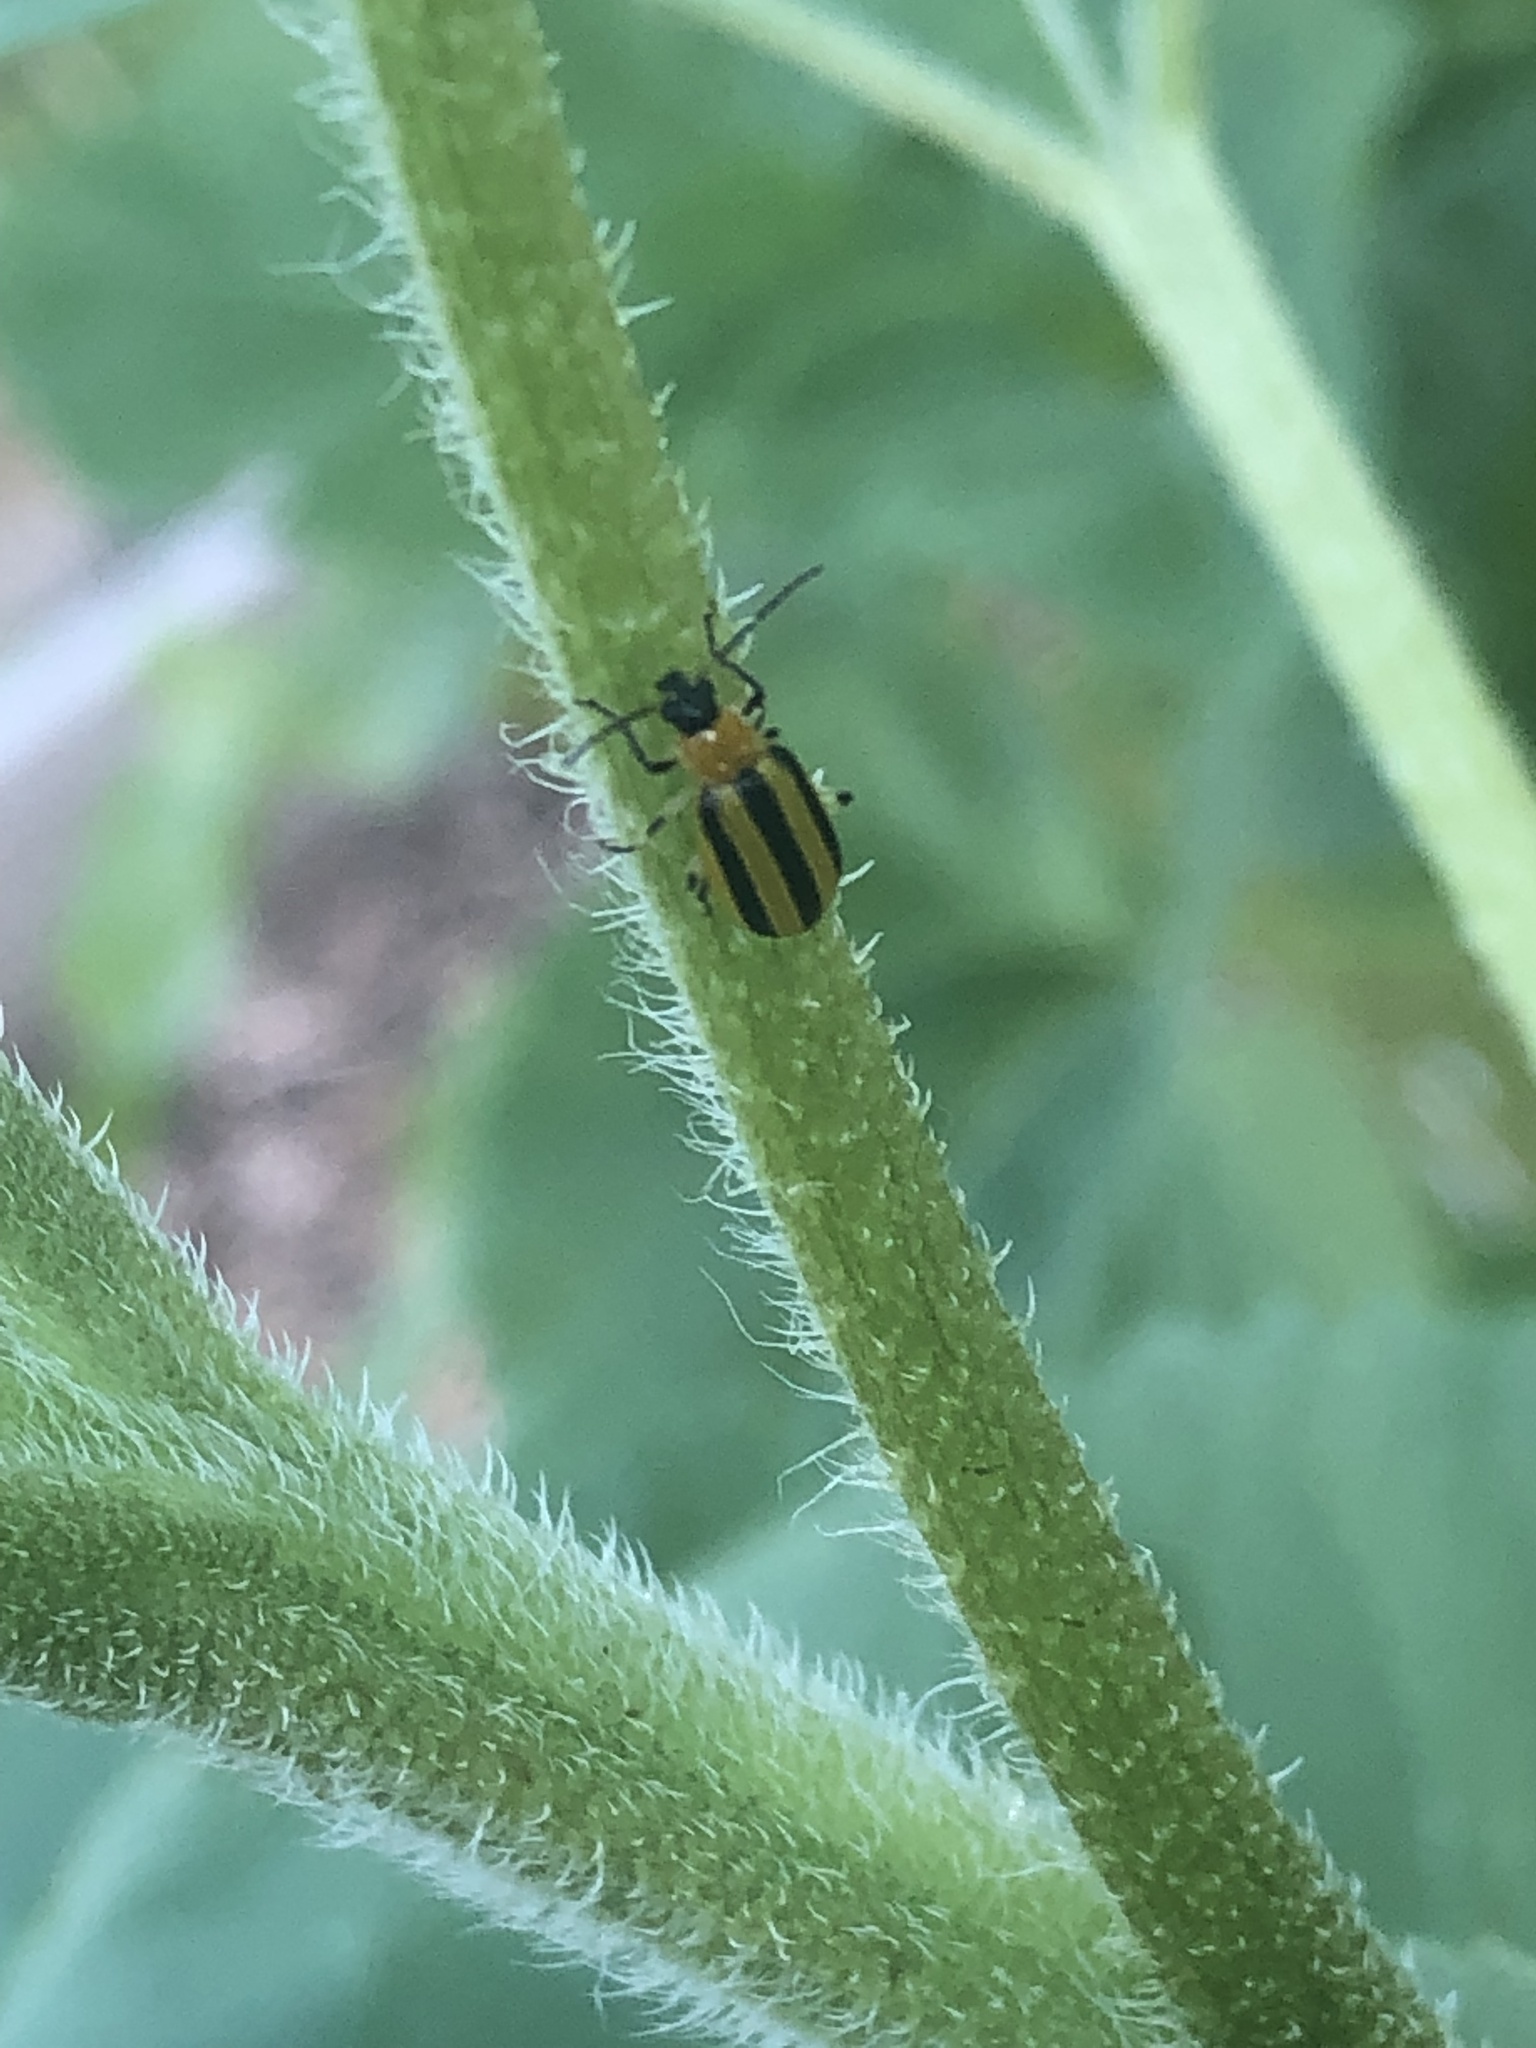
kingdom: Animalia
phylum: Arthropoda
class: Insecta
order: Coleoptera
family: Chrysomelidae
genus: Acalymma
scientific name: Acalymma vittatum
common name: Striped cucumber beetle
